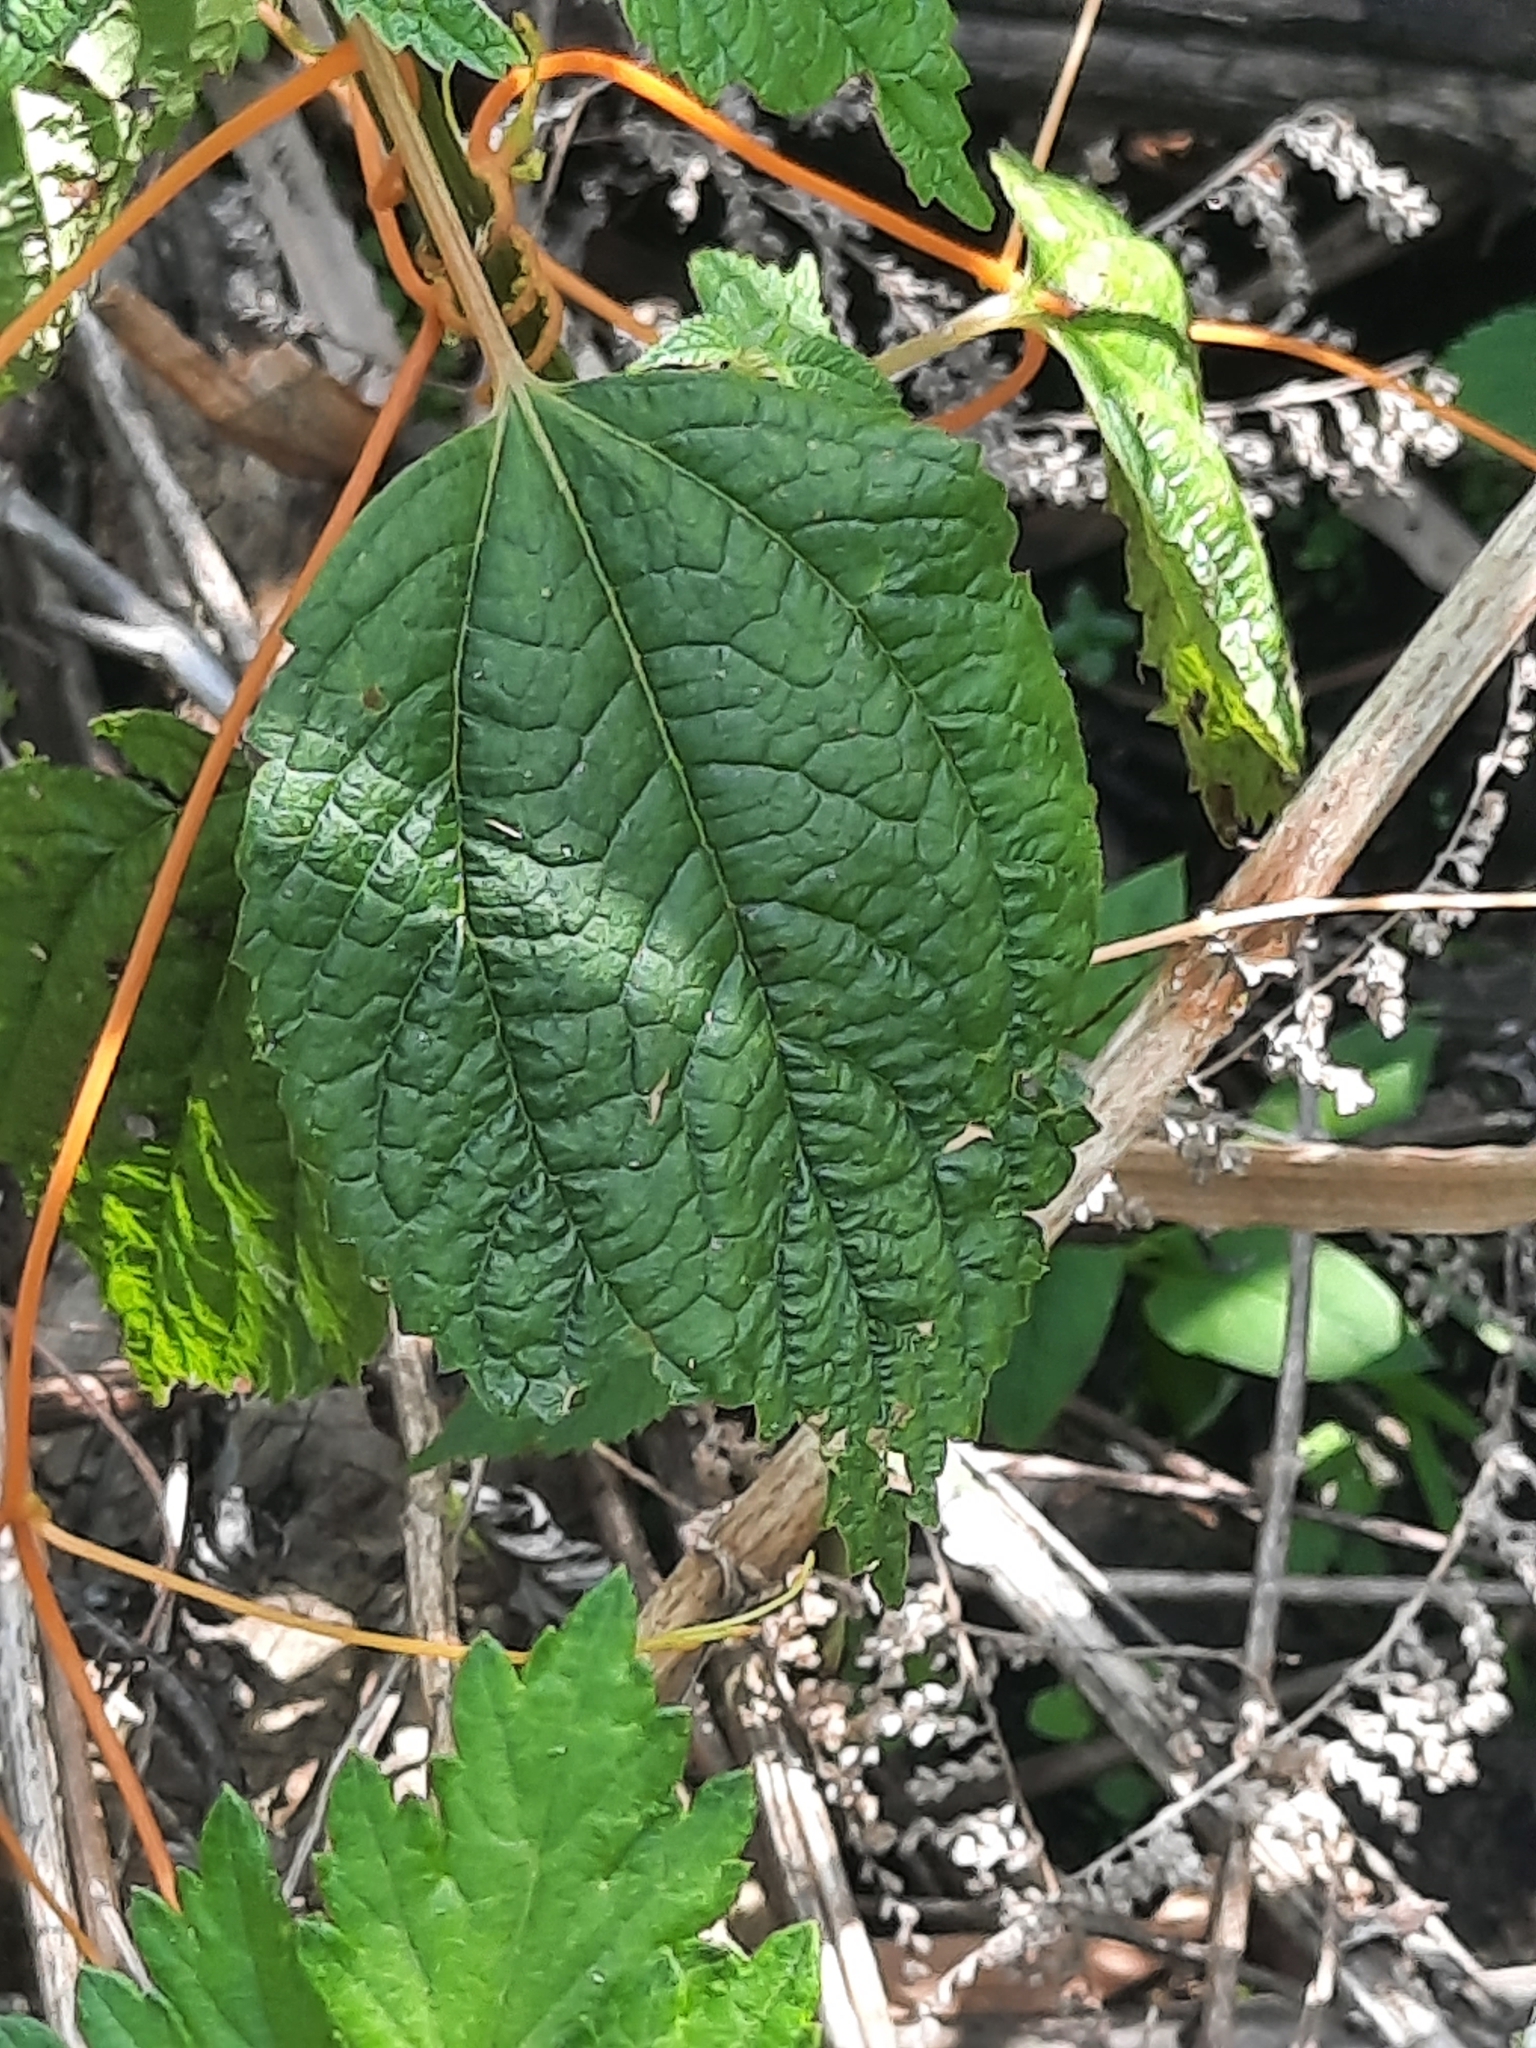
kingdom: Plantae
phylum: Tracheophyta
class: Magnoliopsida
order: Rosales
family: Urticaceae
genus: Boehmeria
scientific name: Boehmeria cylindrica
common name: Bog-hemp
